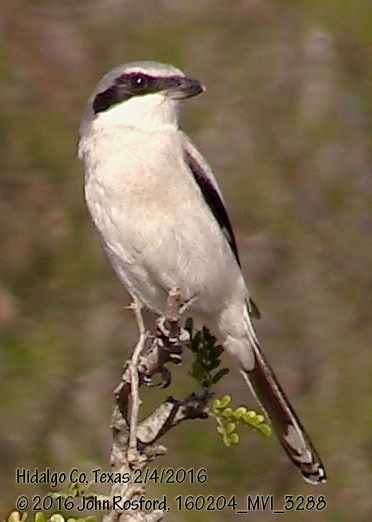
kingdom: Animalia
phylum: Chordata
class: Aves
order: Passeriformes
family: Laniidae
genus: Lanius
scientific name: Lanius ludovicianus
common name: Loggerhead shrike
